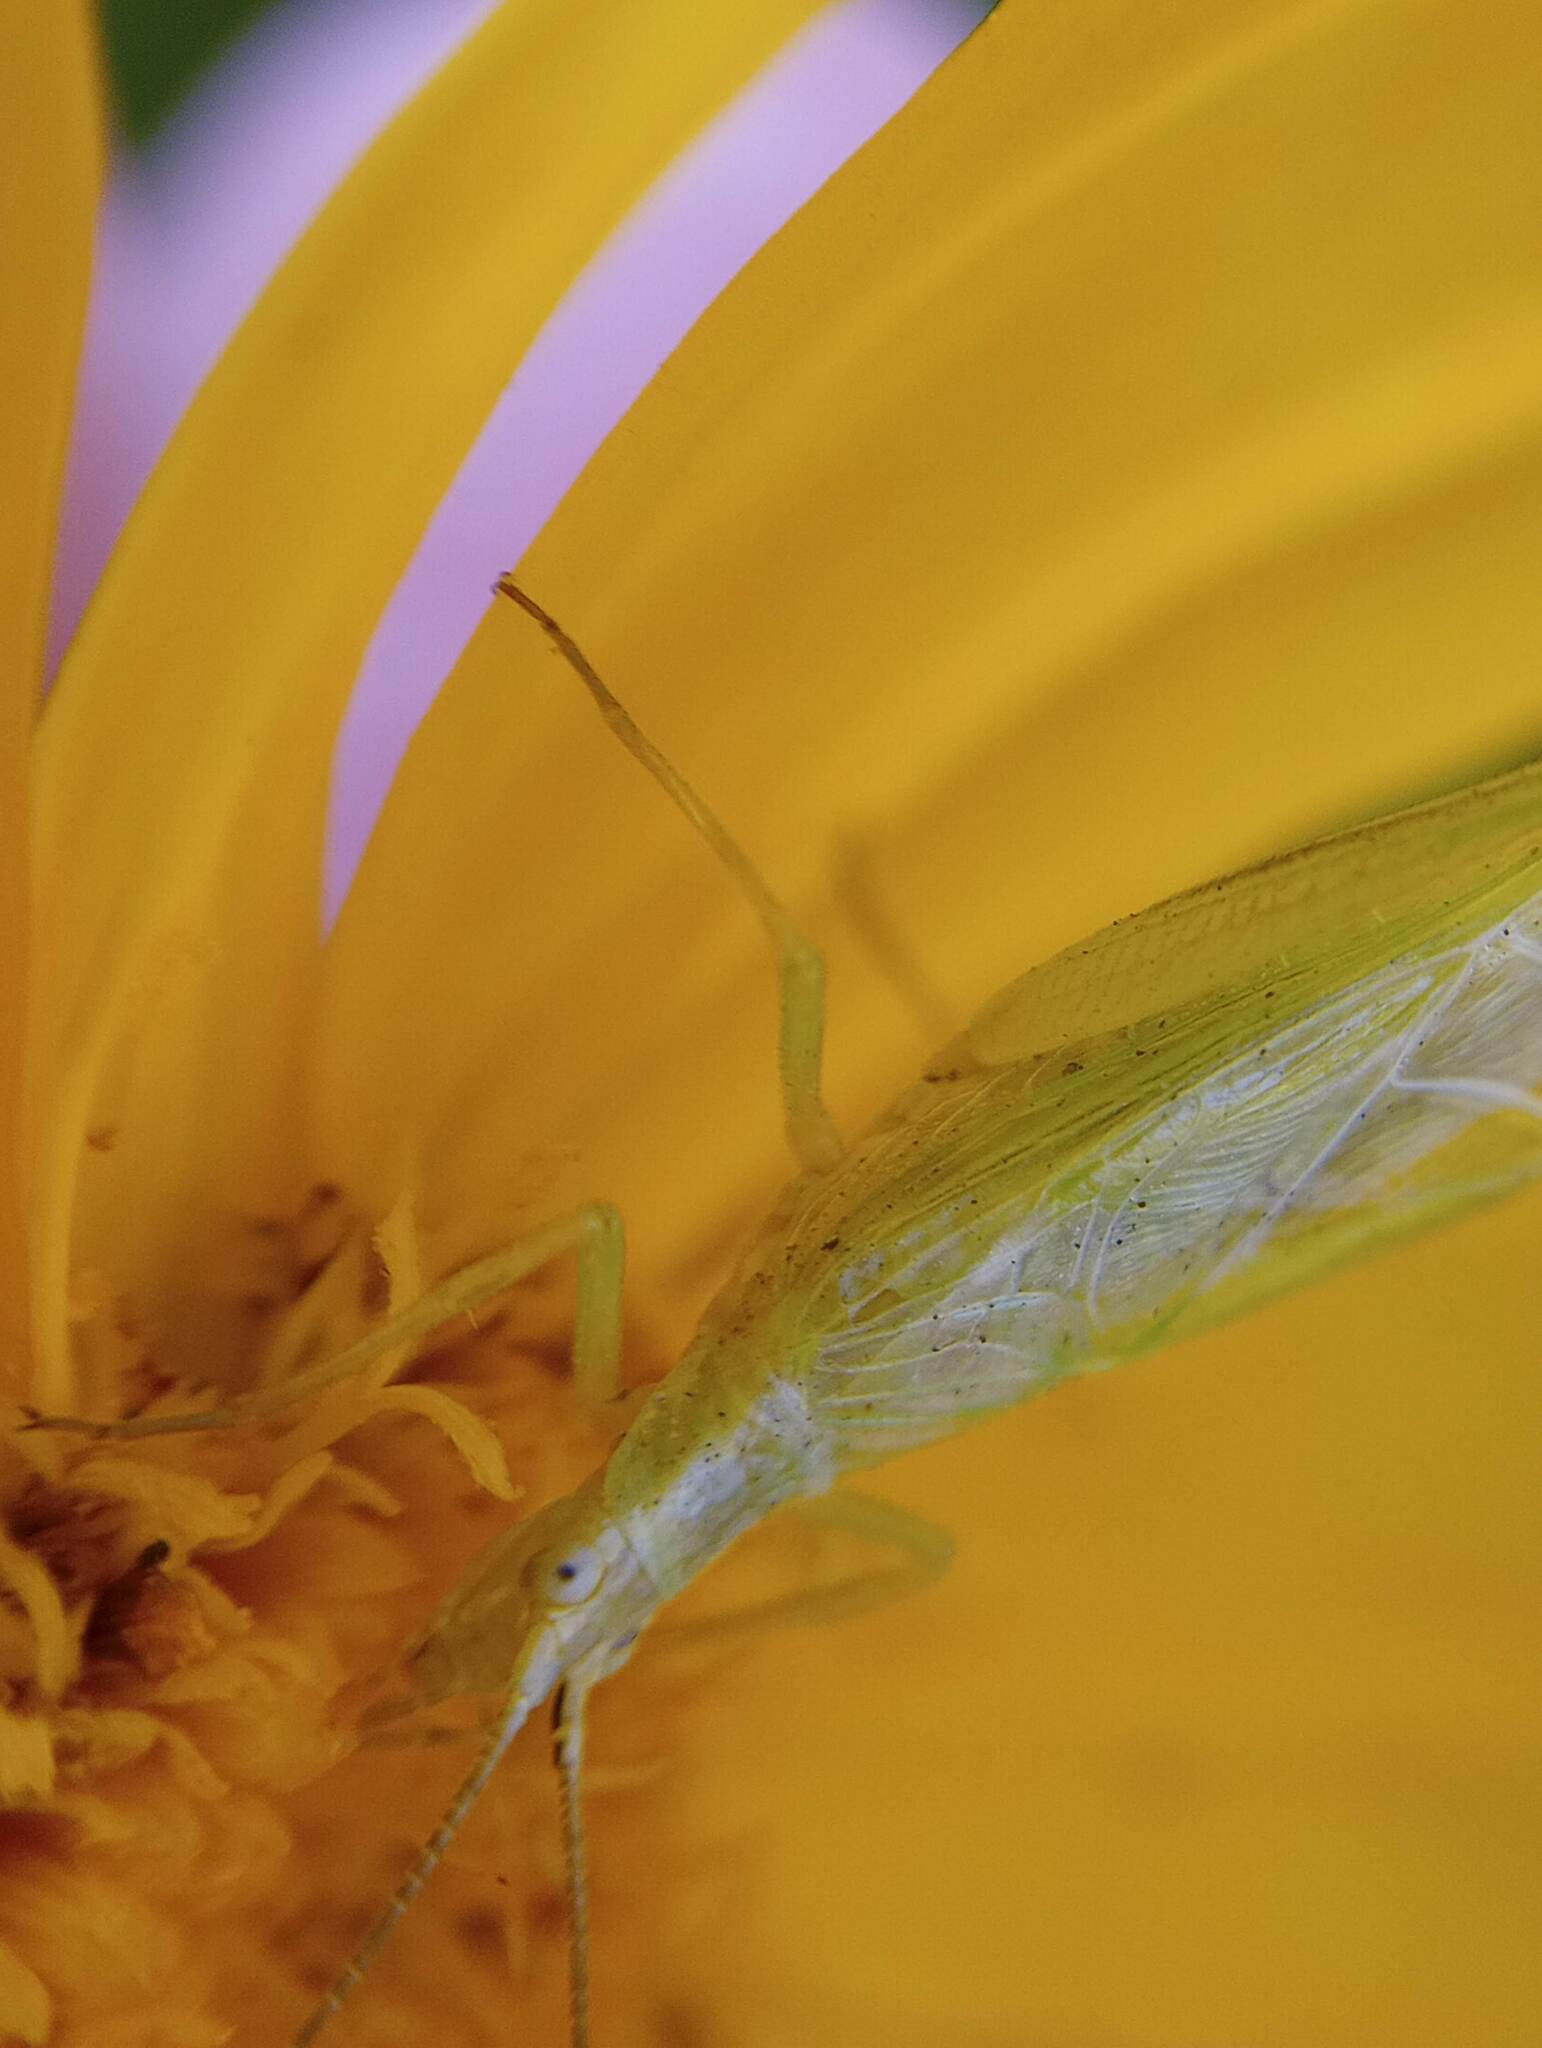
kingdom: Animalia
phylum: Arthropoda
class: Insecta
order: Orthoptera
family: Gryllidae
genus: Oecanthus
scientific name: Oecanthus argentinus
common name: Prairie tree cricket
